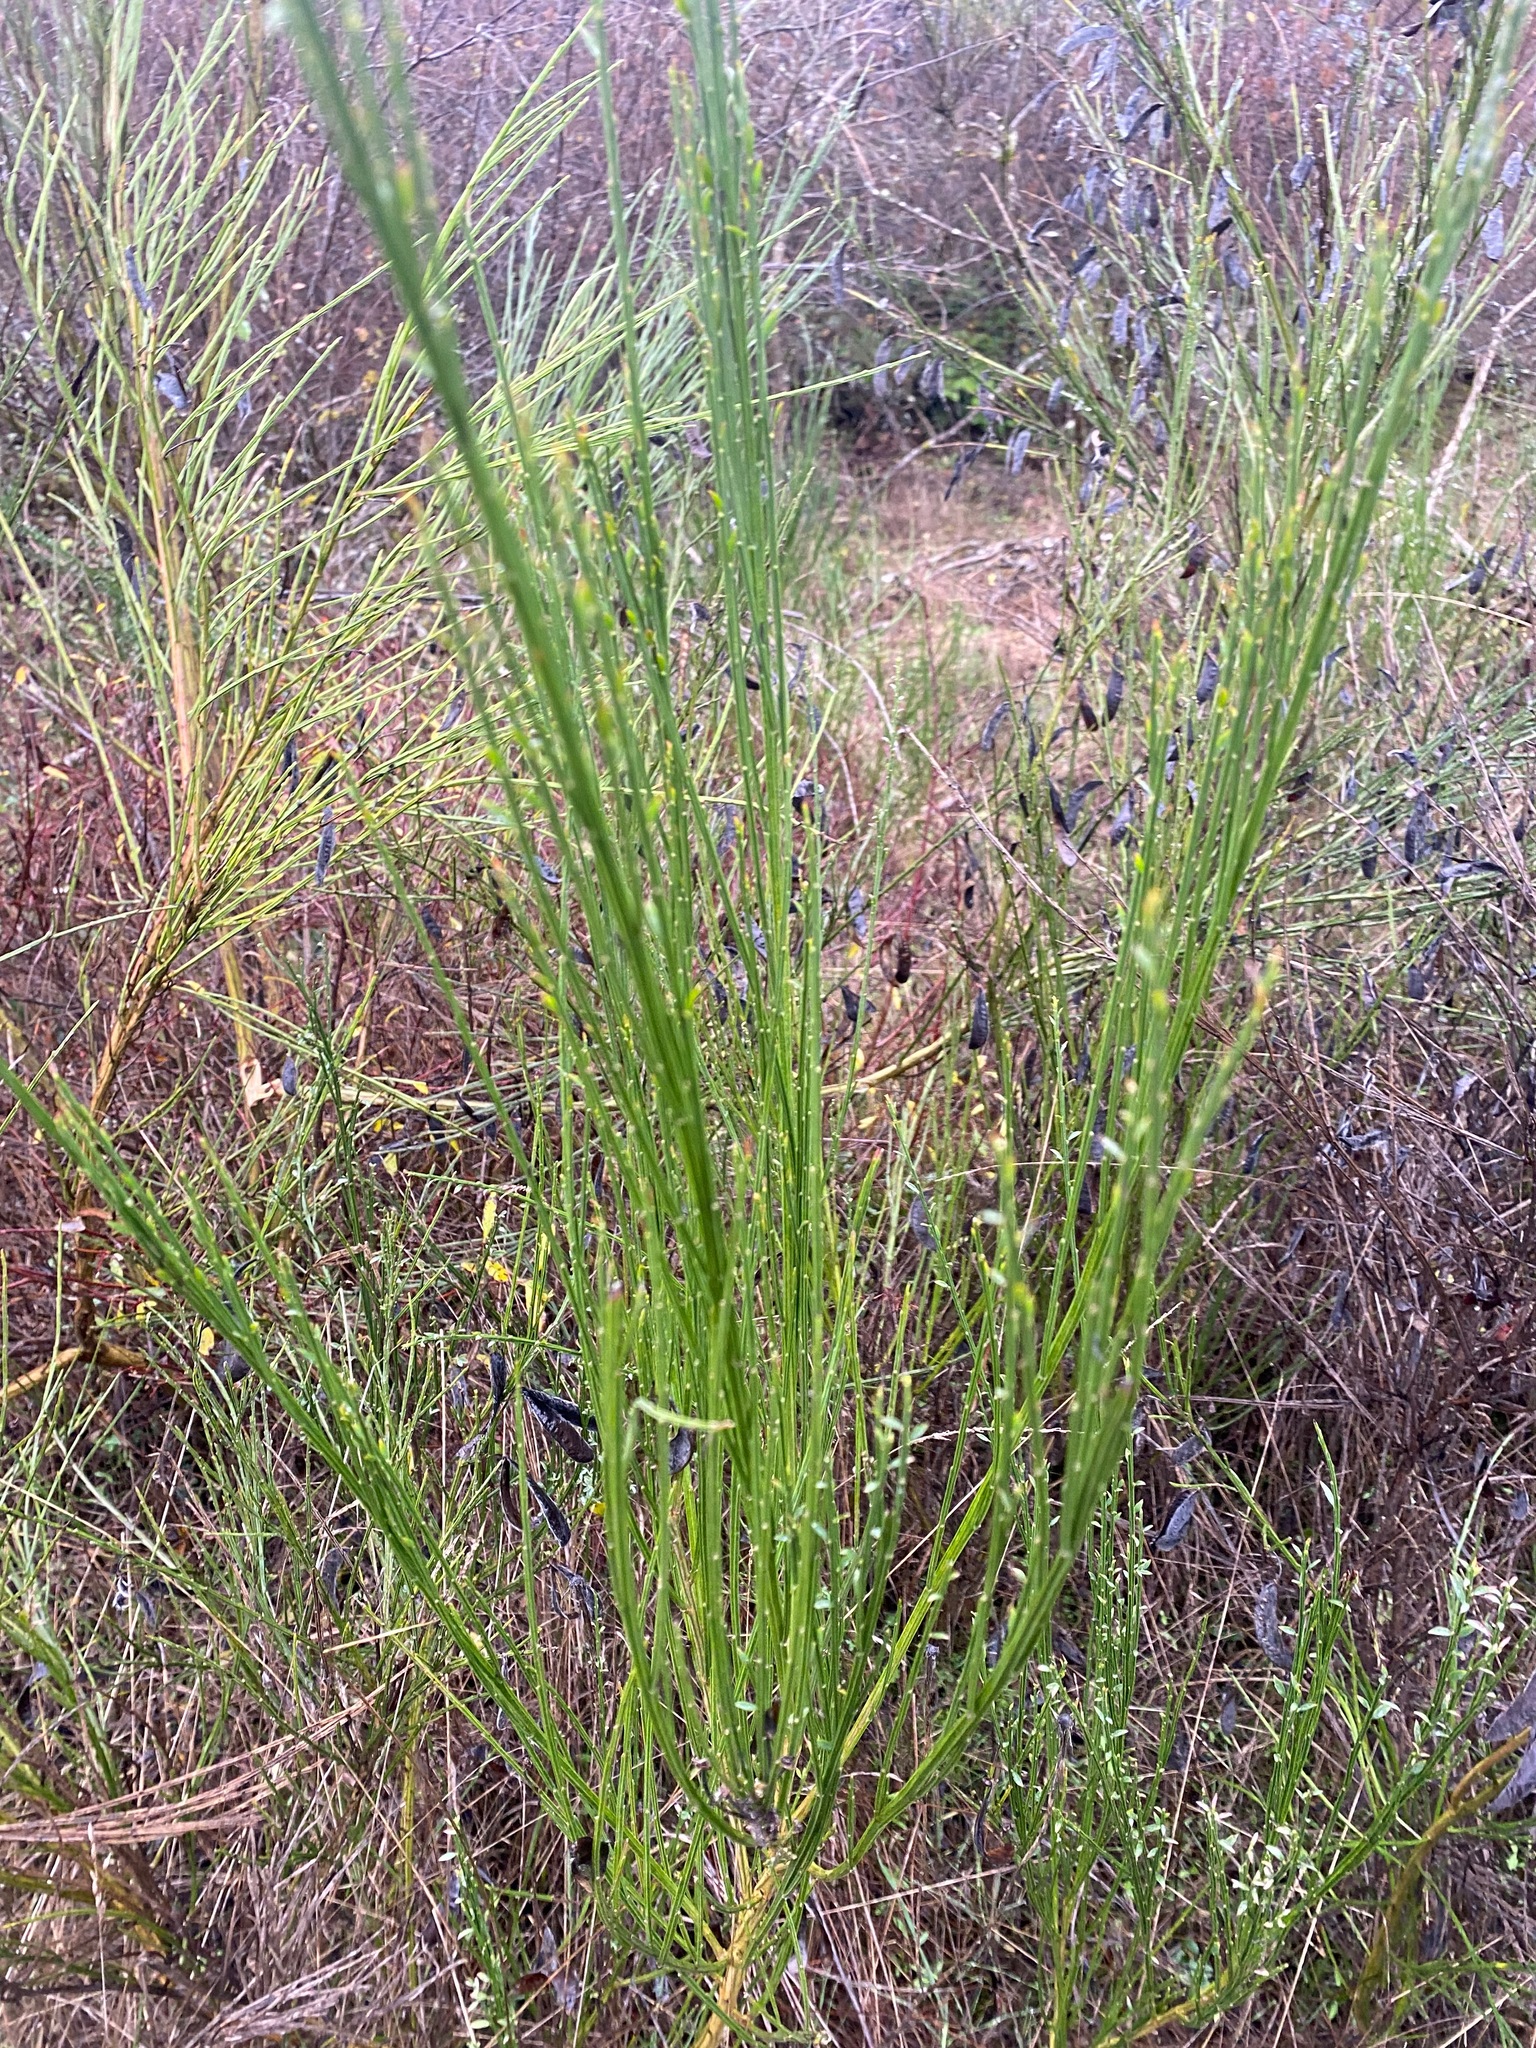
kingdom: Plantae
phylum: Tracheophyta
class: Magnoliopsida
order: Fabales
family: Fabaceae
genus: Cytisus
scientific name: Cytisus scoparius
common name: Scotch broom
